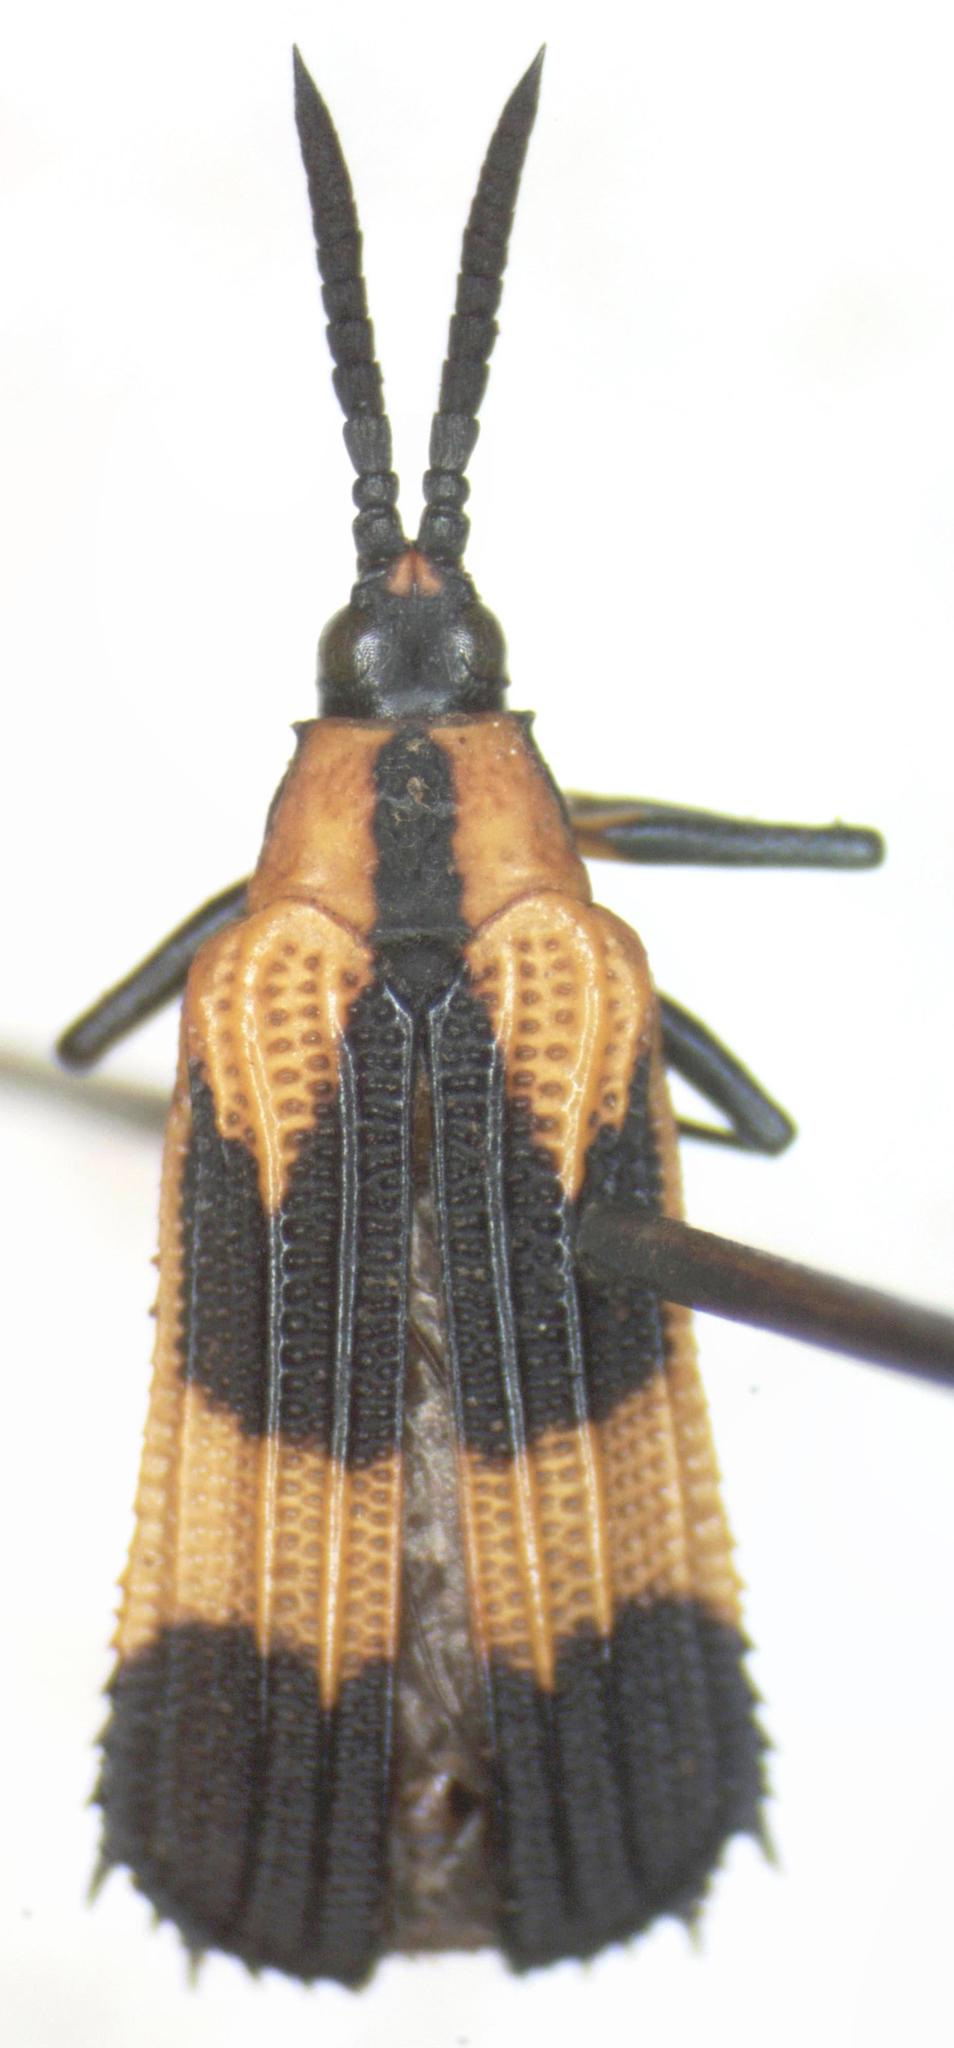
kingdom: Animalia
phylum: Arthropoda
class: Insecta
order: Coleoptera
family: Chrysomelidae
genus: Oxychalepus
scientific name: Oxychalepus alienus
